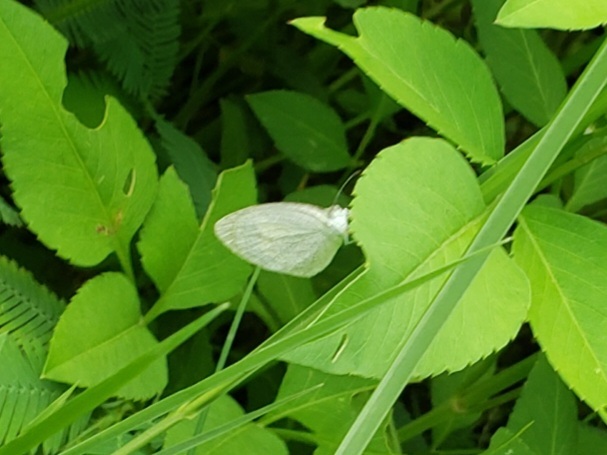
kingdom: Animalia
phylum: Arthropoda
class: Insecta
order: Lepidoptera
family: Pieridae
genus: Eurema
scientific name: Eurema daira
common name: Barred sulphur
